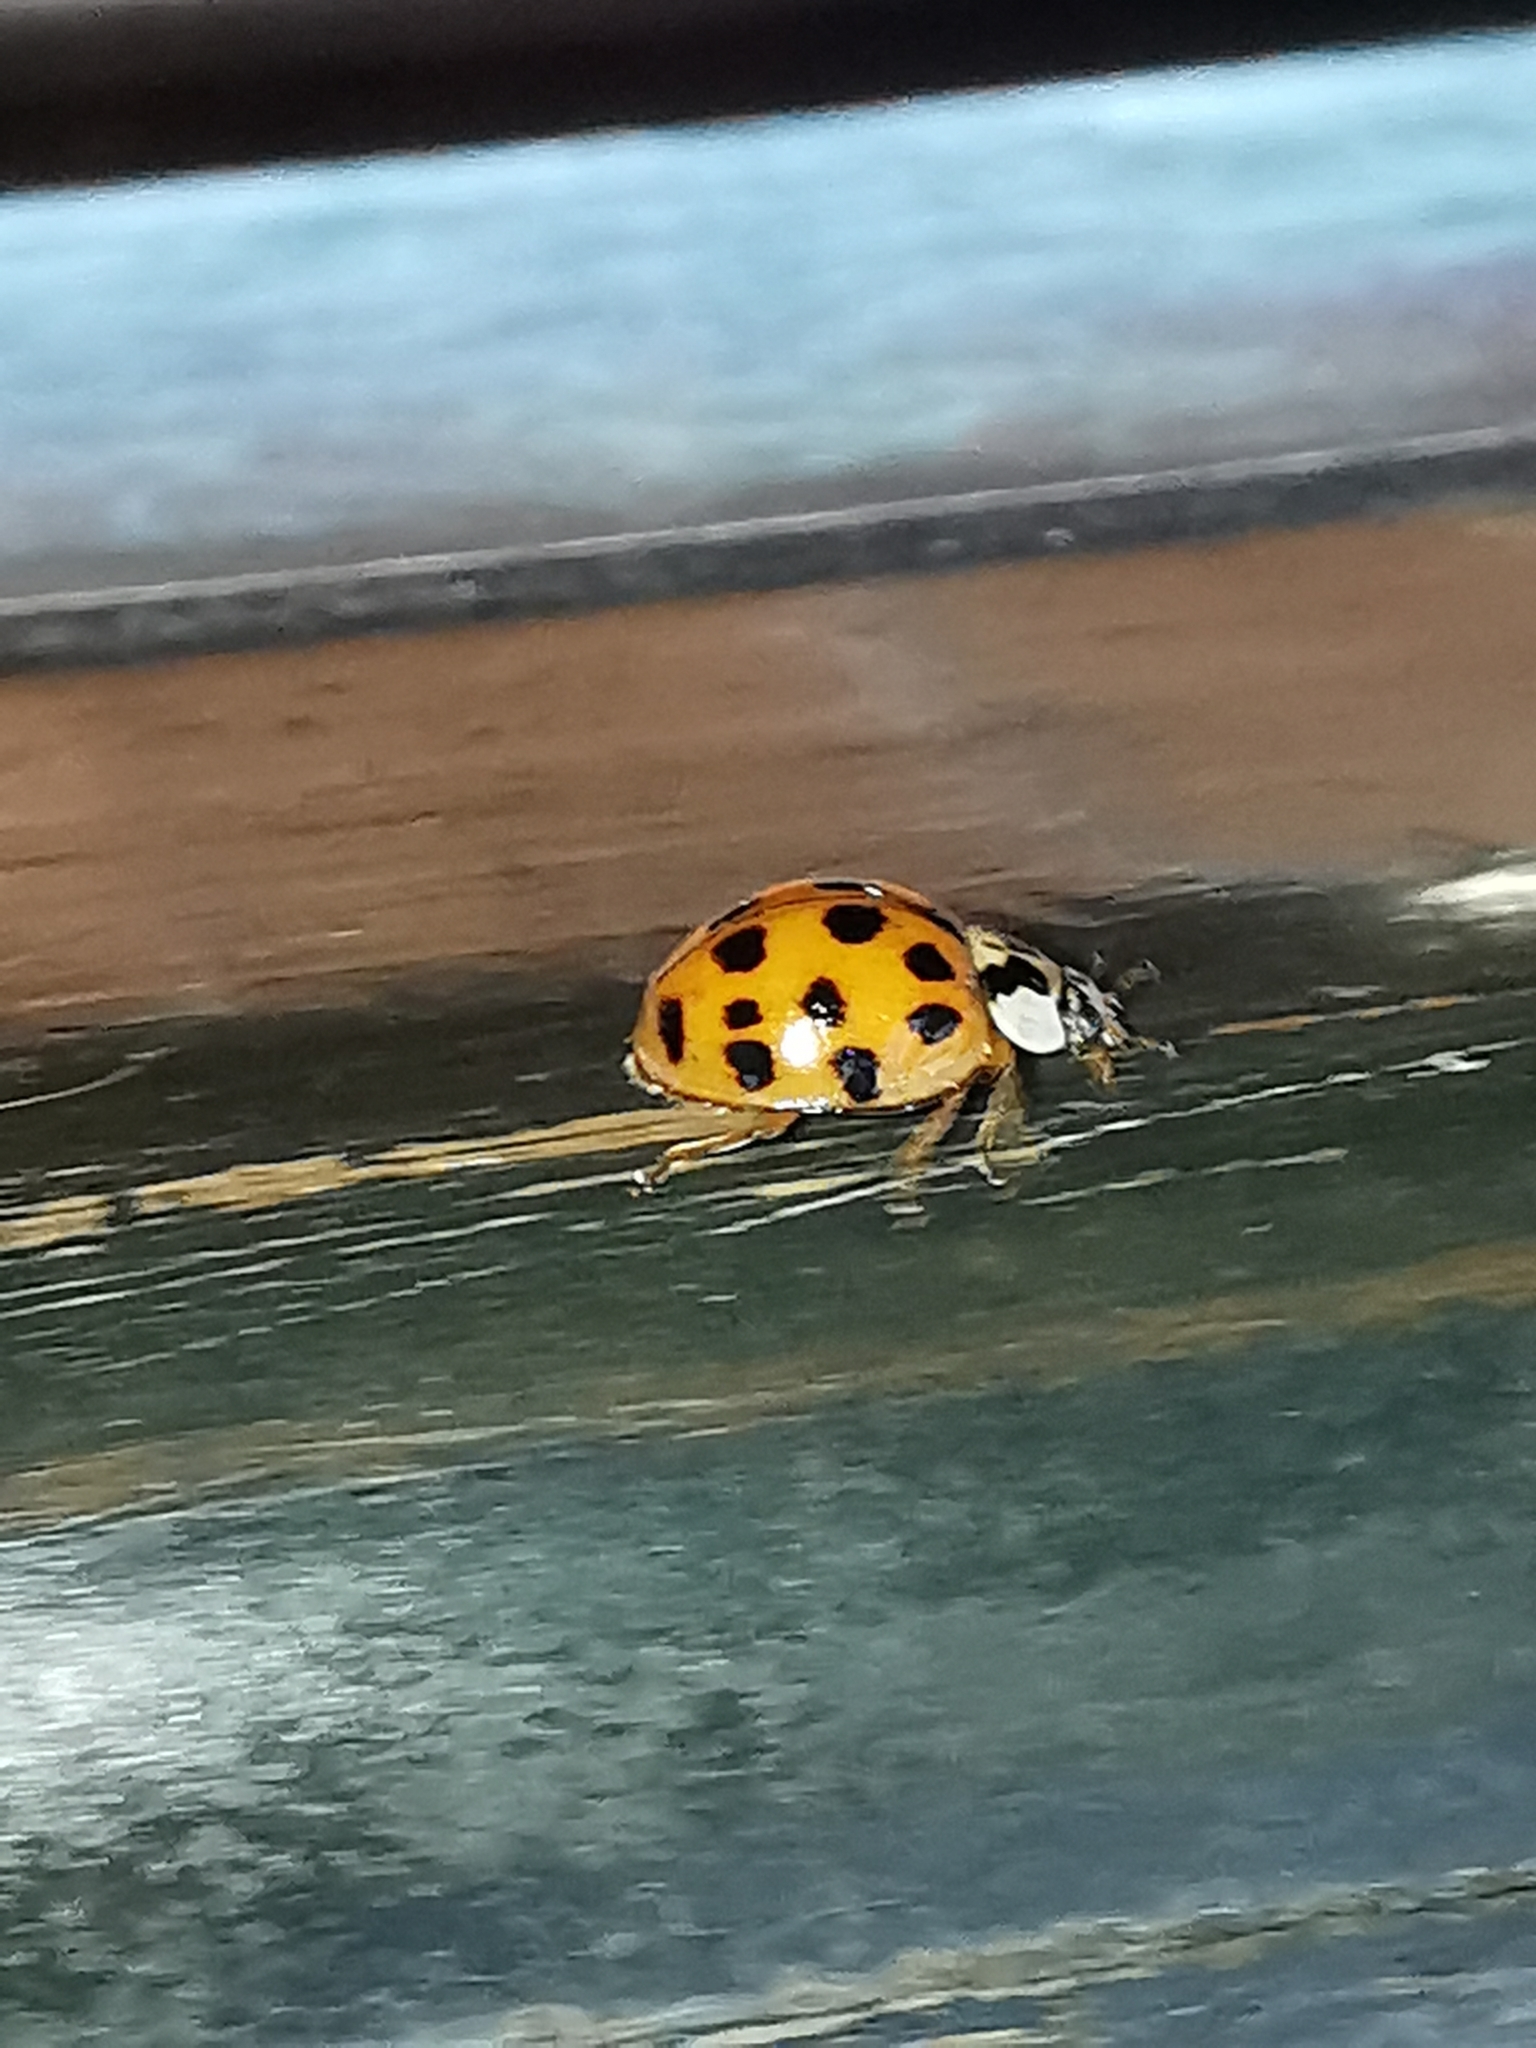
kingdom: Animalia
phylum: Arthropoda
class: Insecta
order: Coleoptera
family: Coccinellidae
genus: Harmonia
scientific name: Harmonia axyridis
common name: Harlequin ladybird
